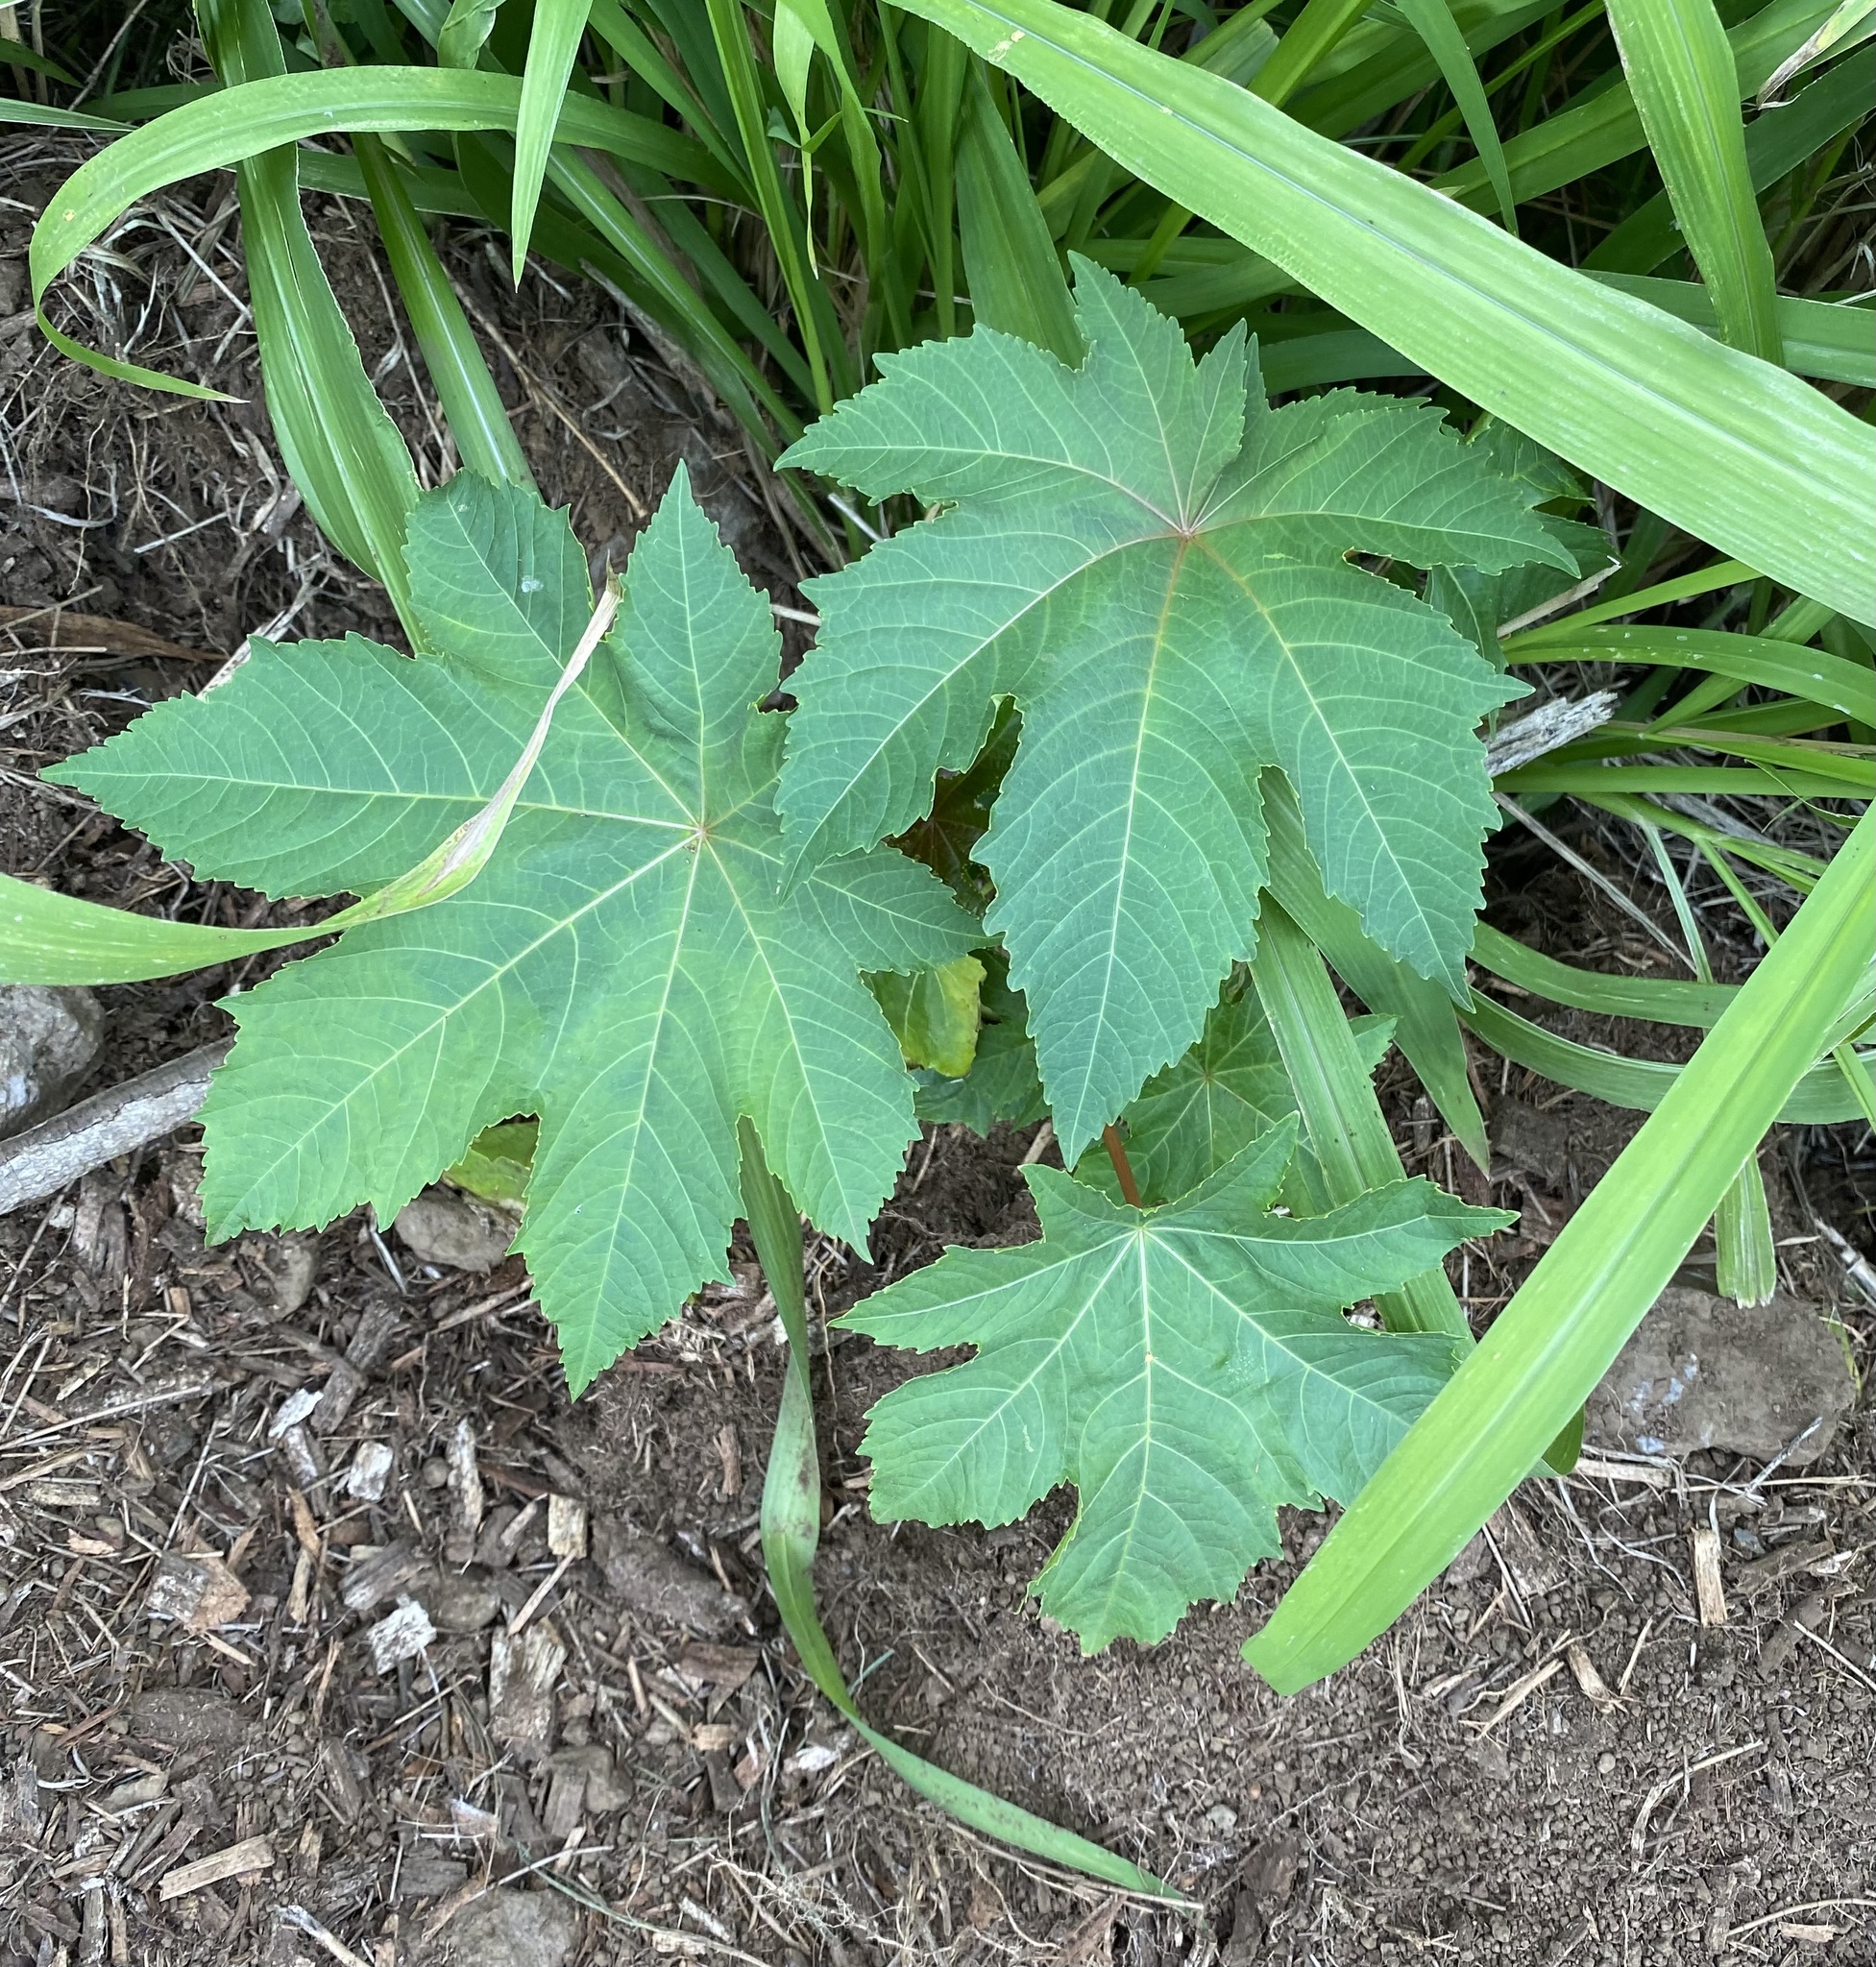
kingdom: Plantae
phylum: Tracheophyta
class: Magnoliopsida
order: Malpighiales
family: Euphorbiaceae
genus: Ricinus
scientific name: Ricinus communis
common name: Castor-oil-plant
